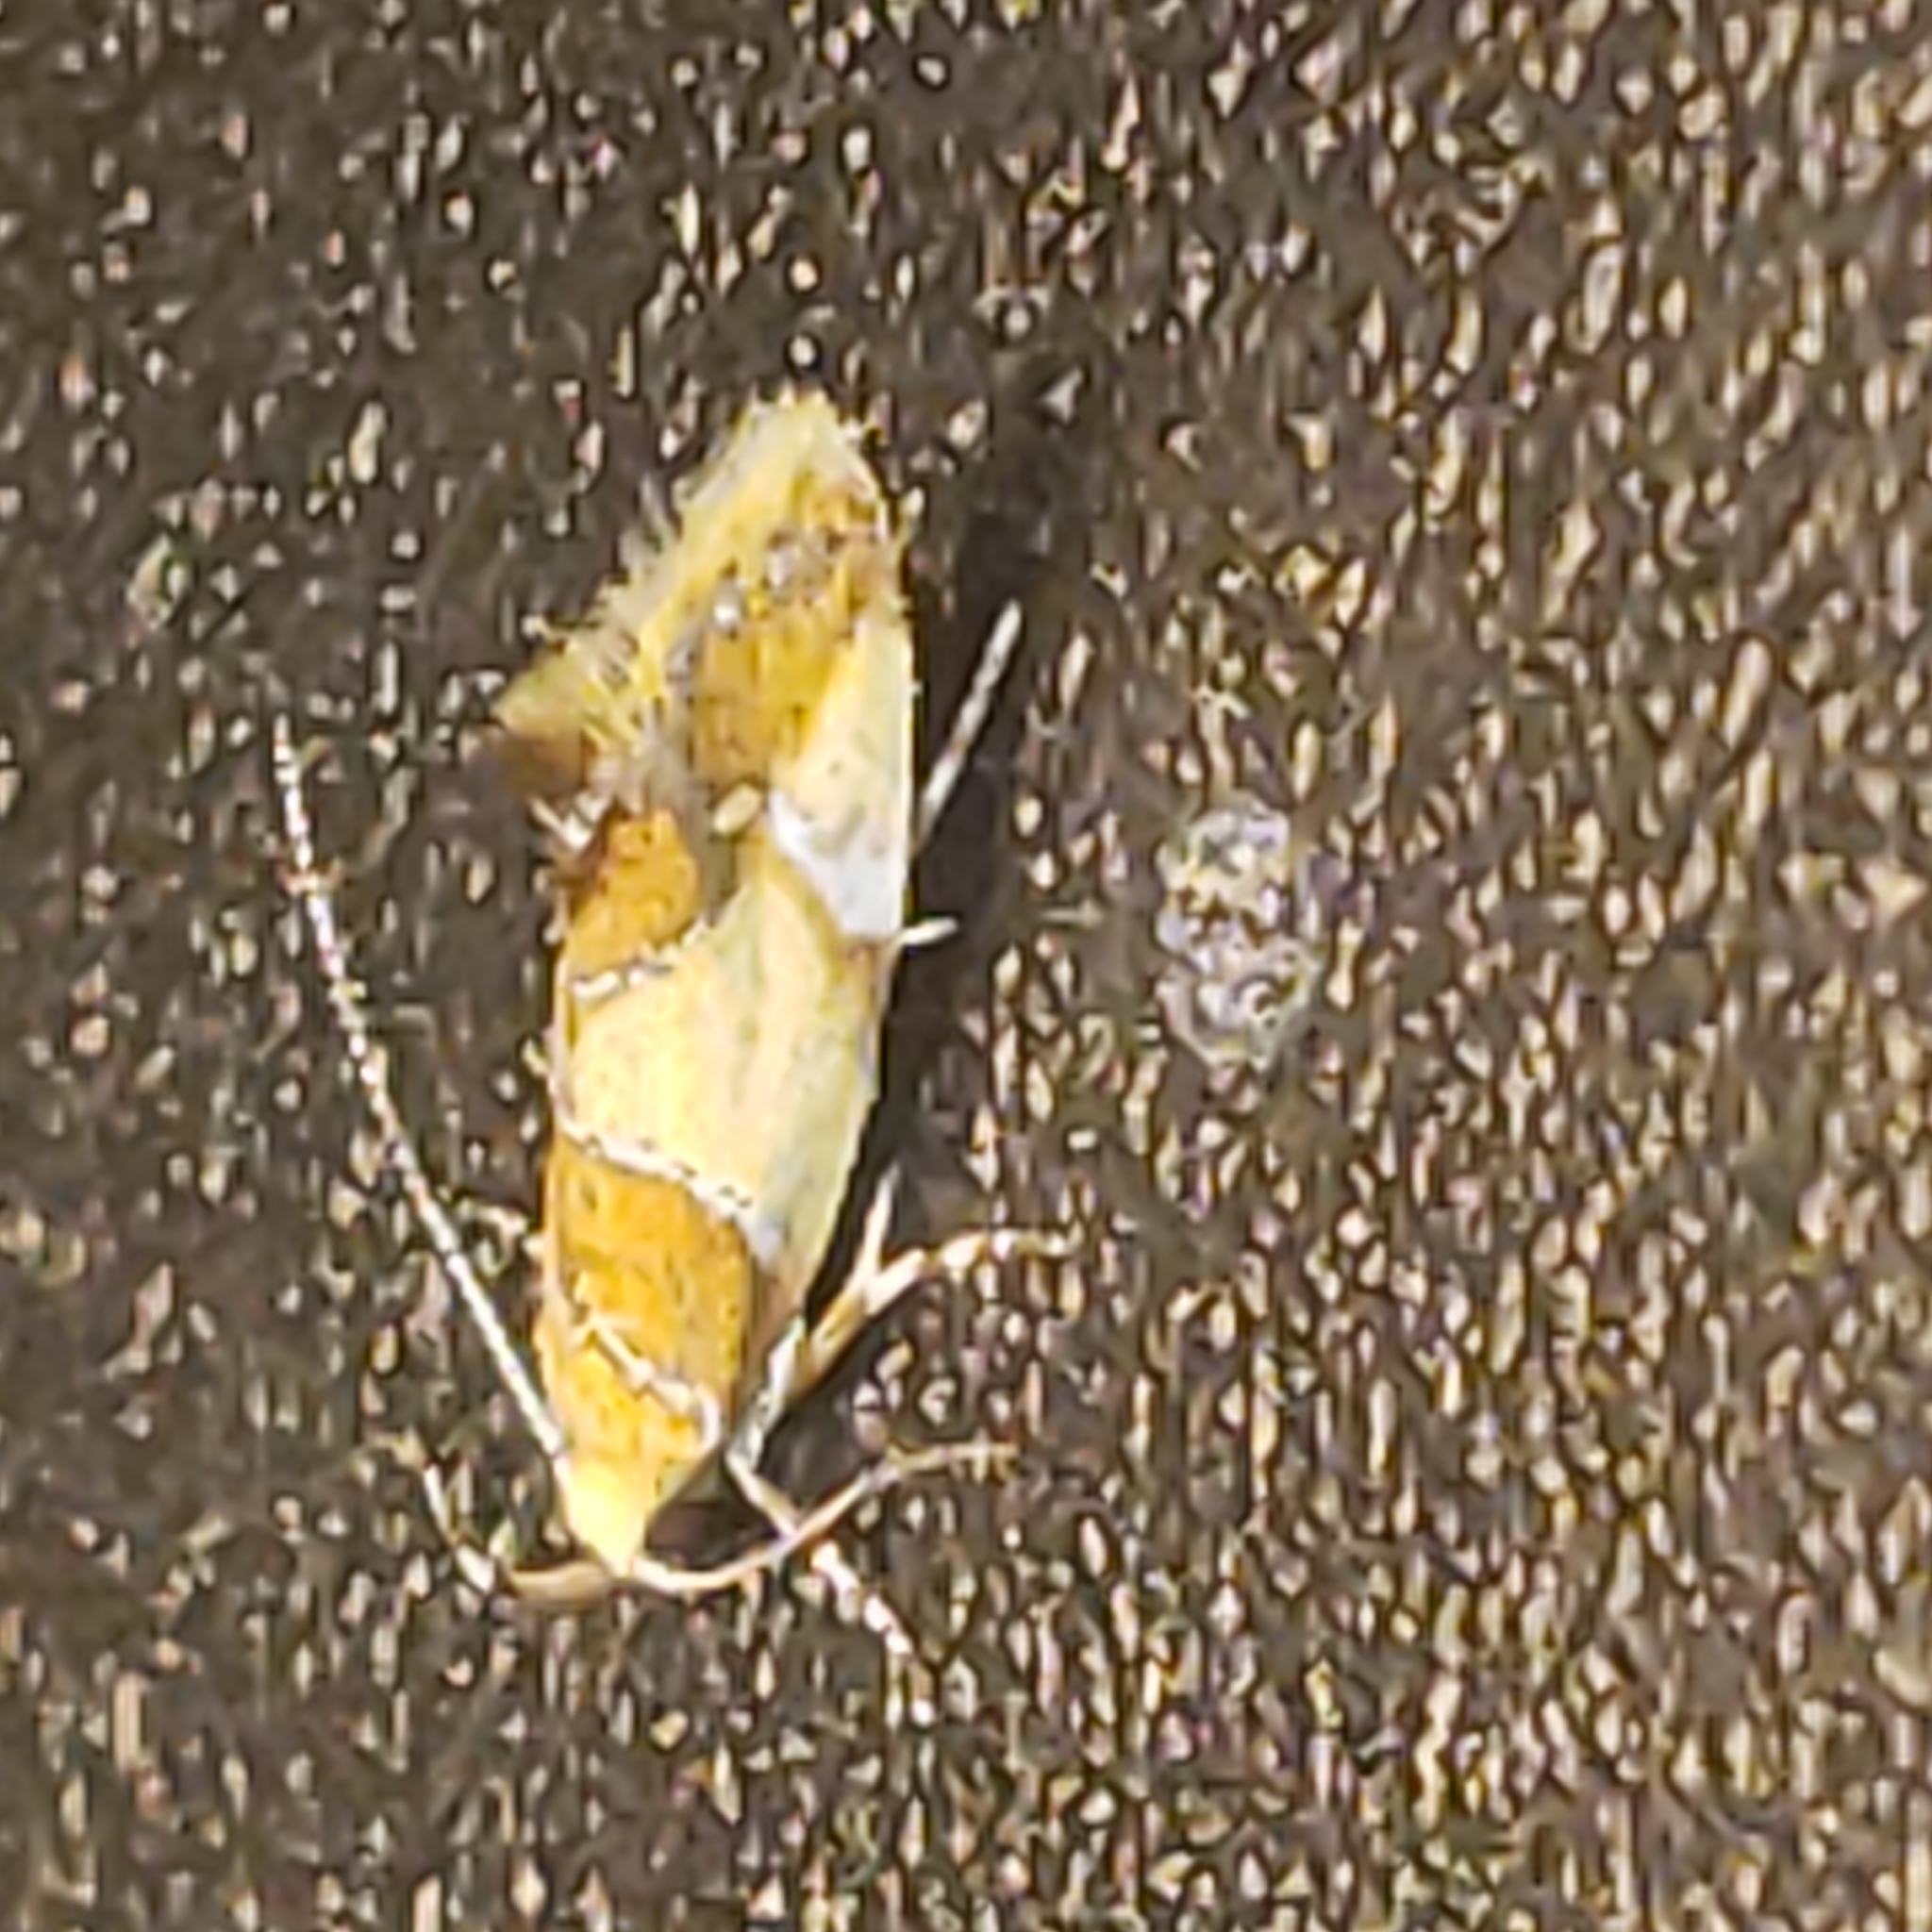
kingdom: Animalia
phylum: Arthropoda
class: Insecta
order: Lepidoptera
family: Oecophoridae
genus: Callima
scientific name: Callima argenticinctella
